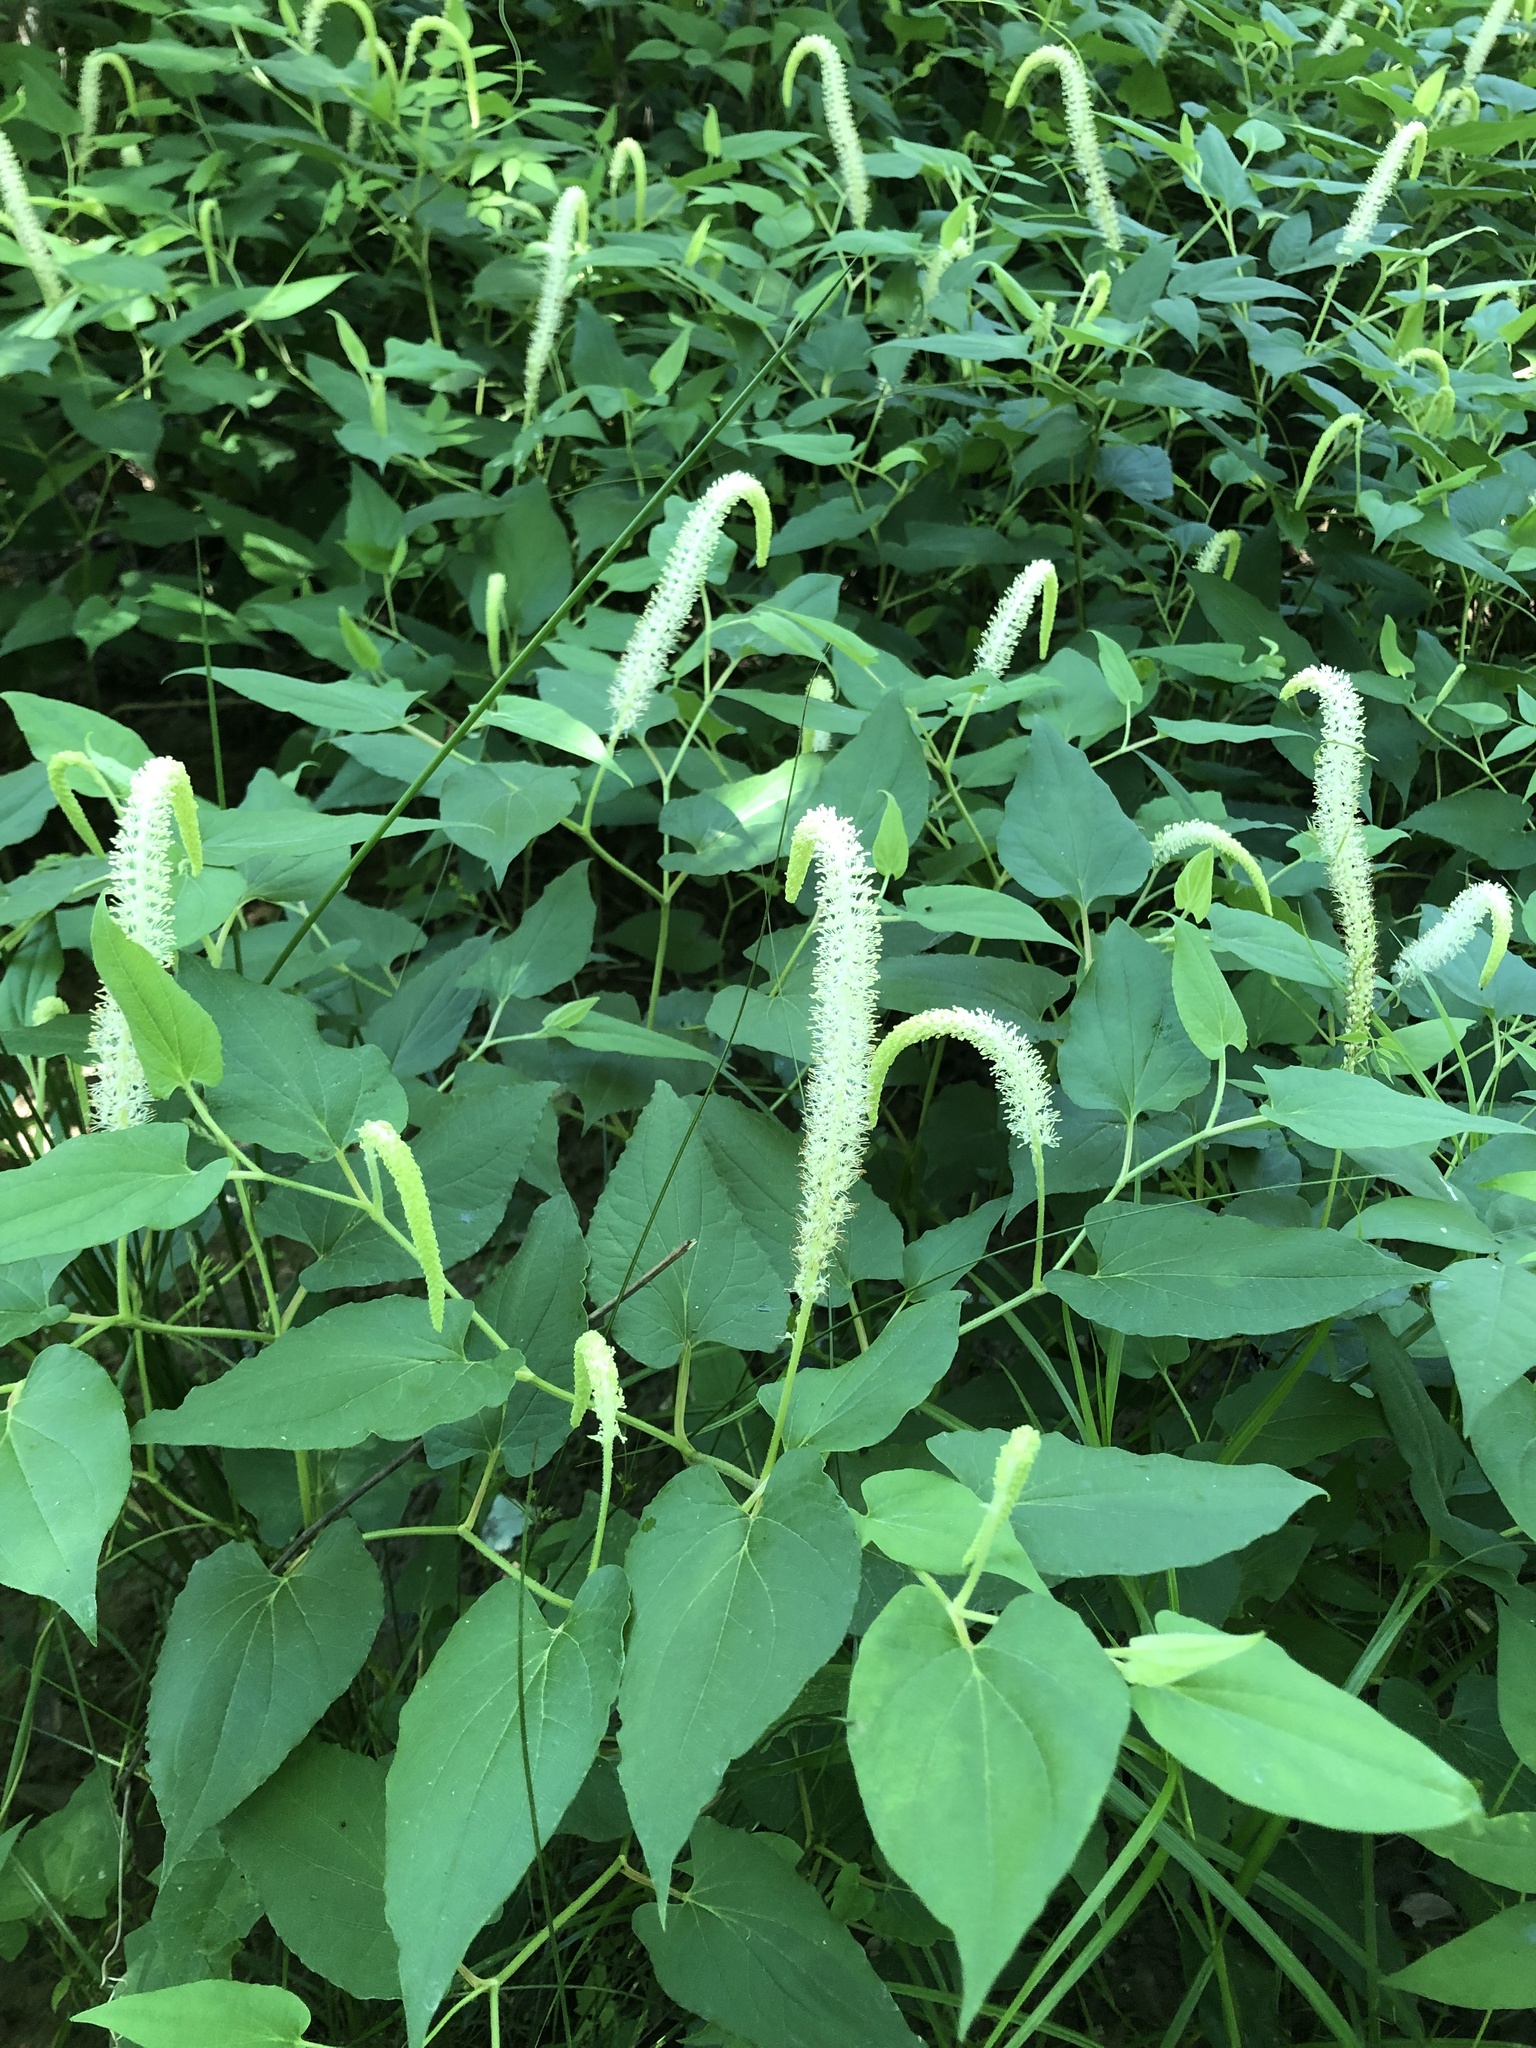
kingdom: Plantae
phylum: Tracheophyta
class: Magnoliopsida
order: Piperales
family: Saururaceae
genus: Saururus
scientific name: Saururus cernuus
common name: Lizard's-tail
